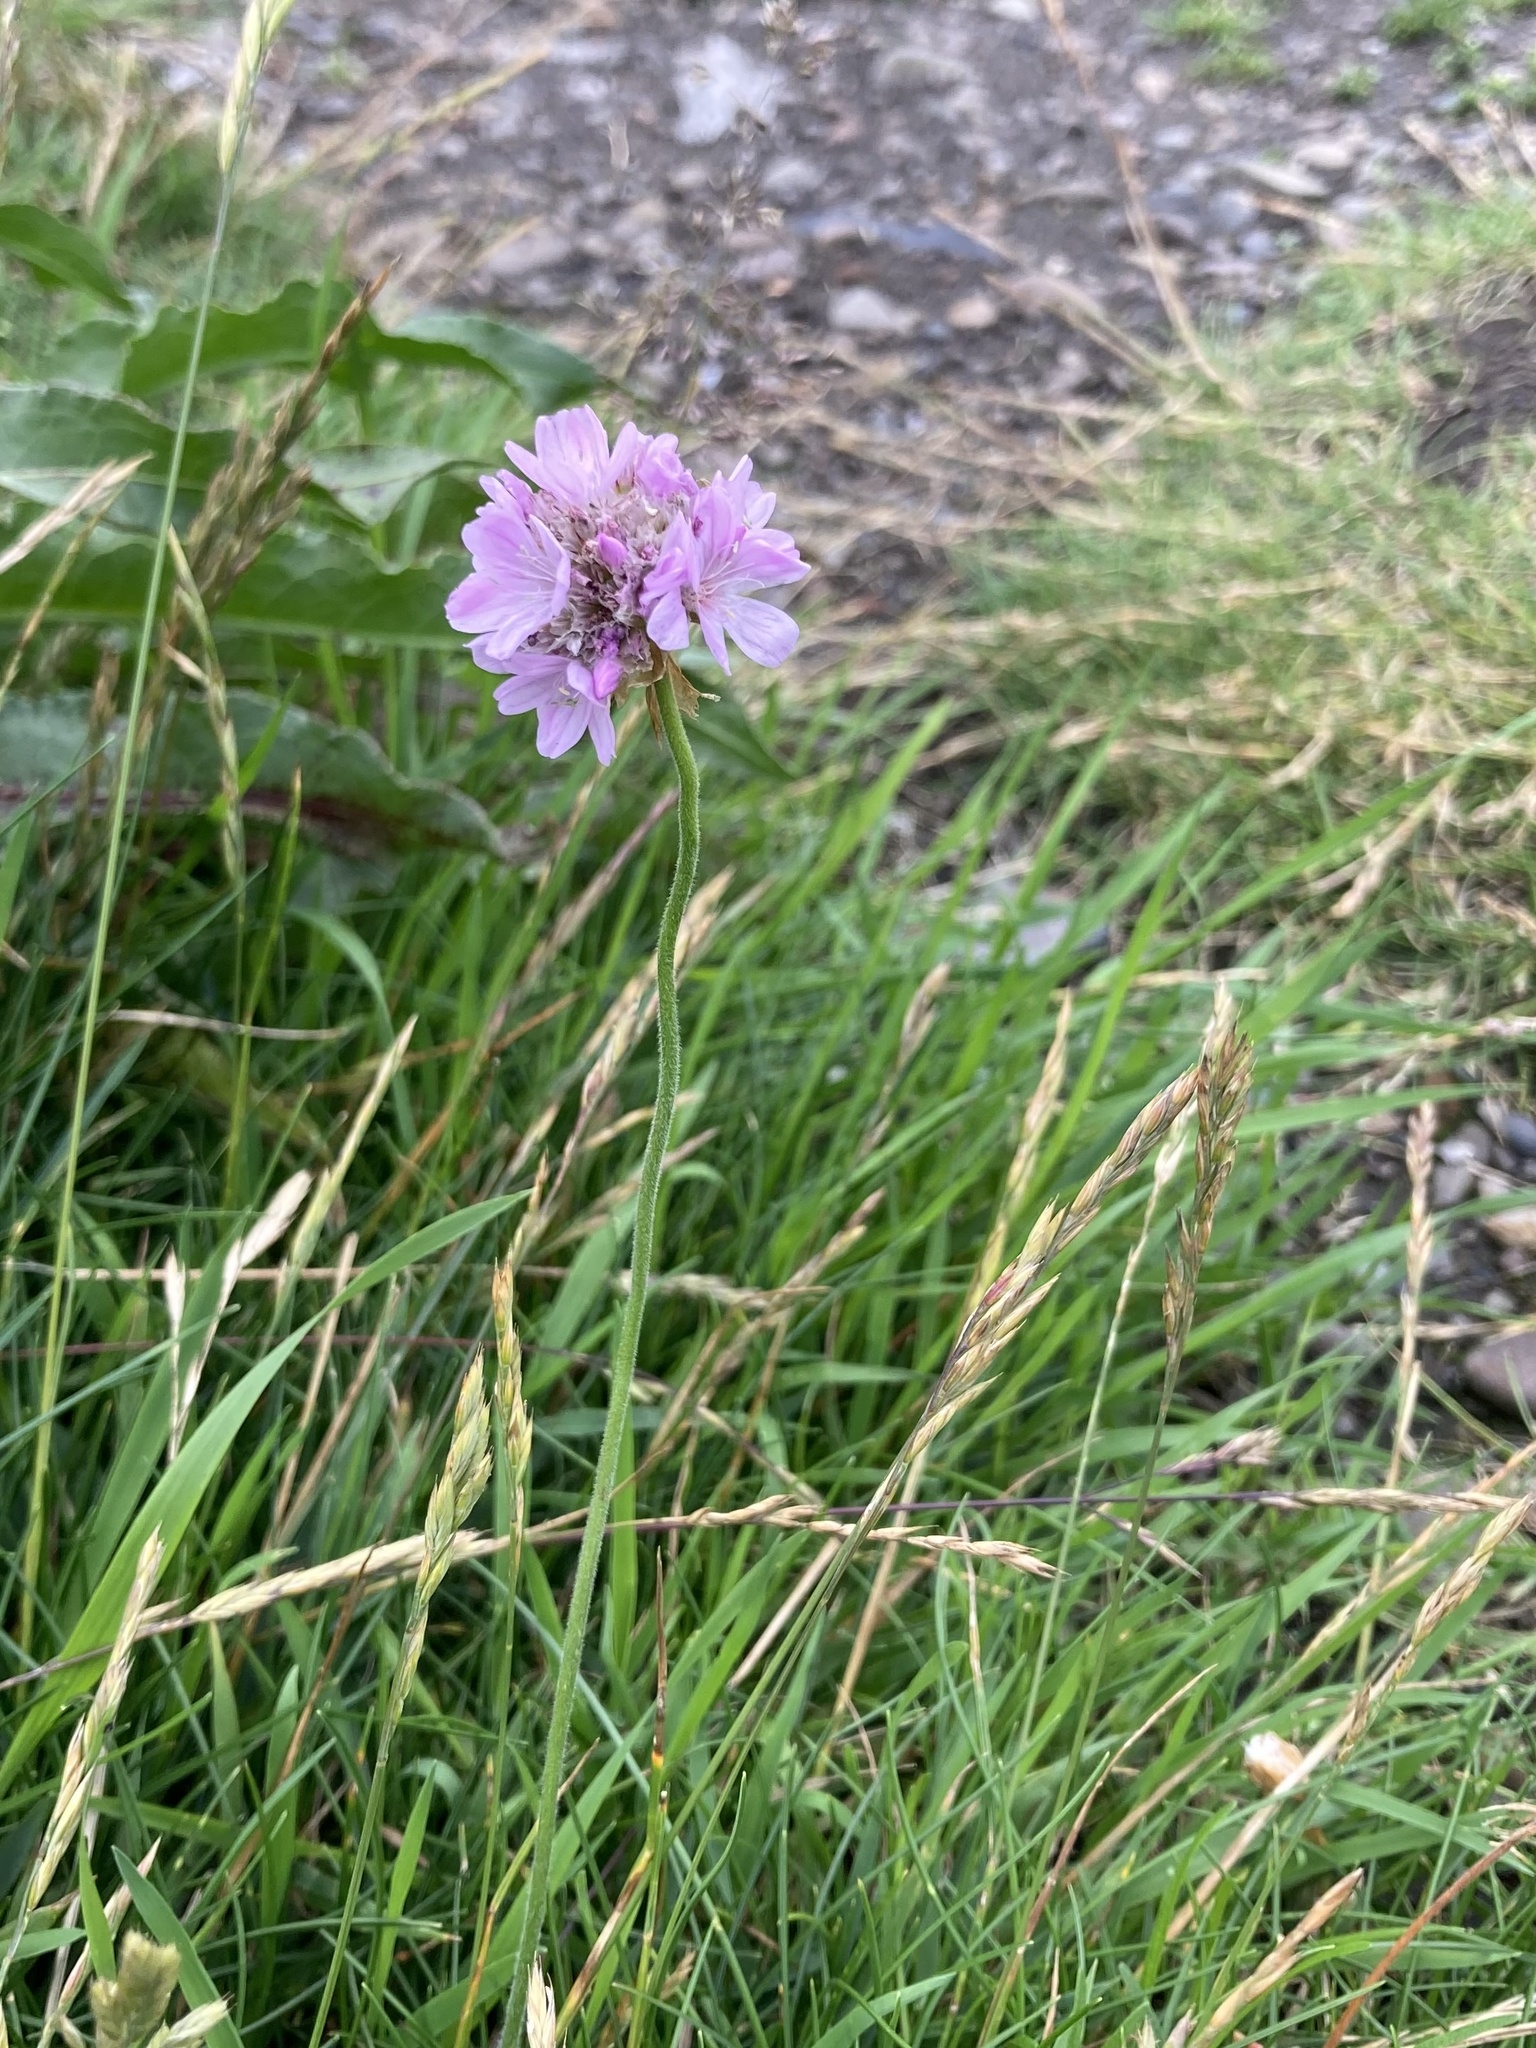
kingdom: Plantae
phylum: Tracheophyta
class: Magnoliopsida
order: Caryophyllales
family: Plumbaginaceae
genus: Armeria
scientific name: Armeria maritima
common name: Thrift
